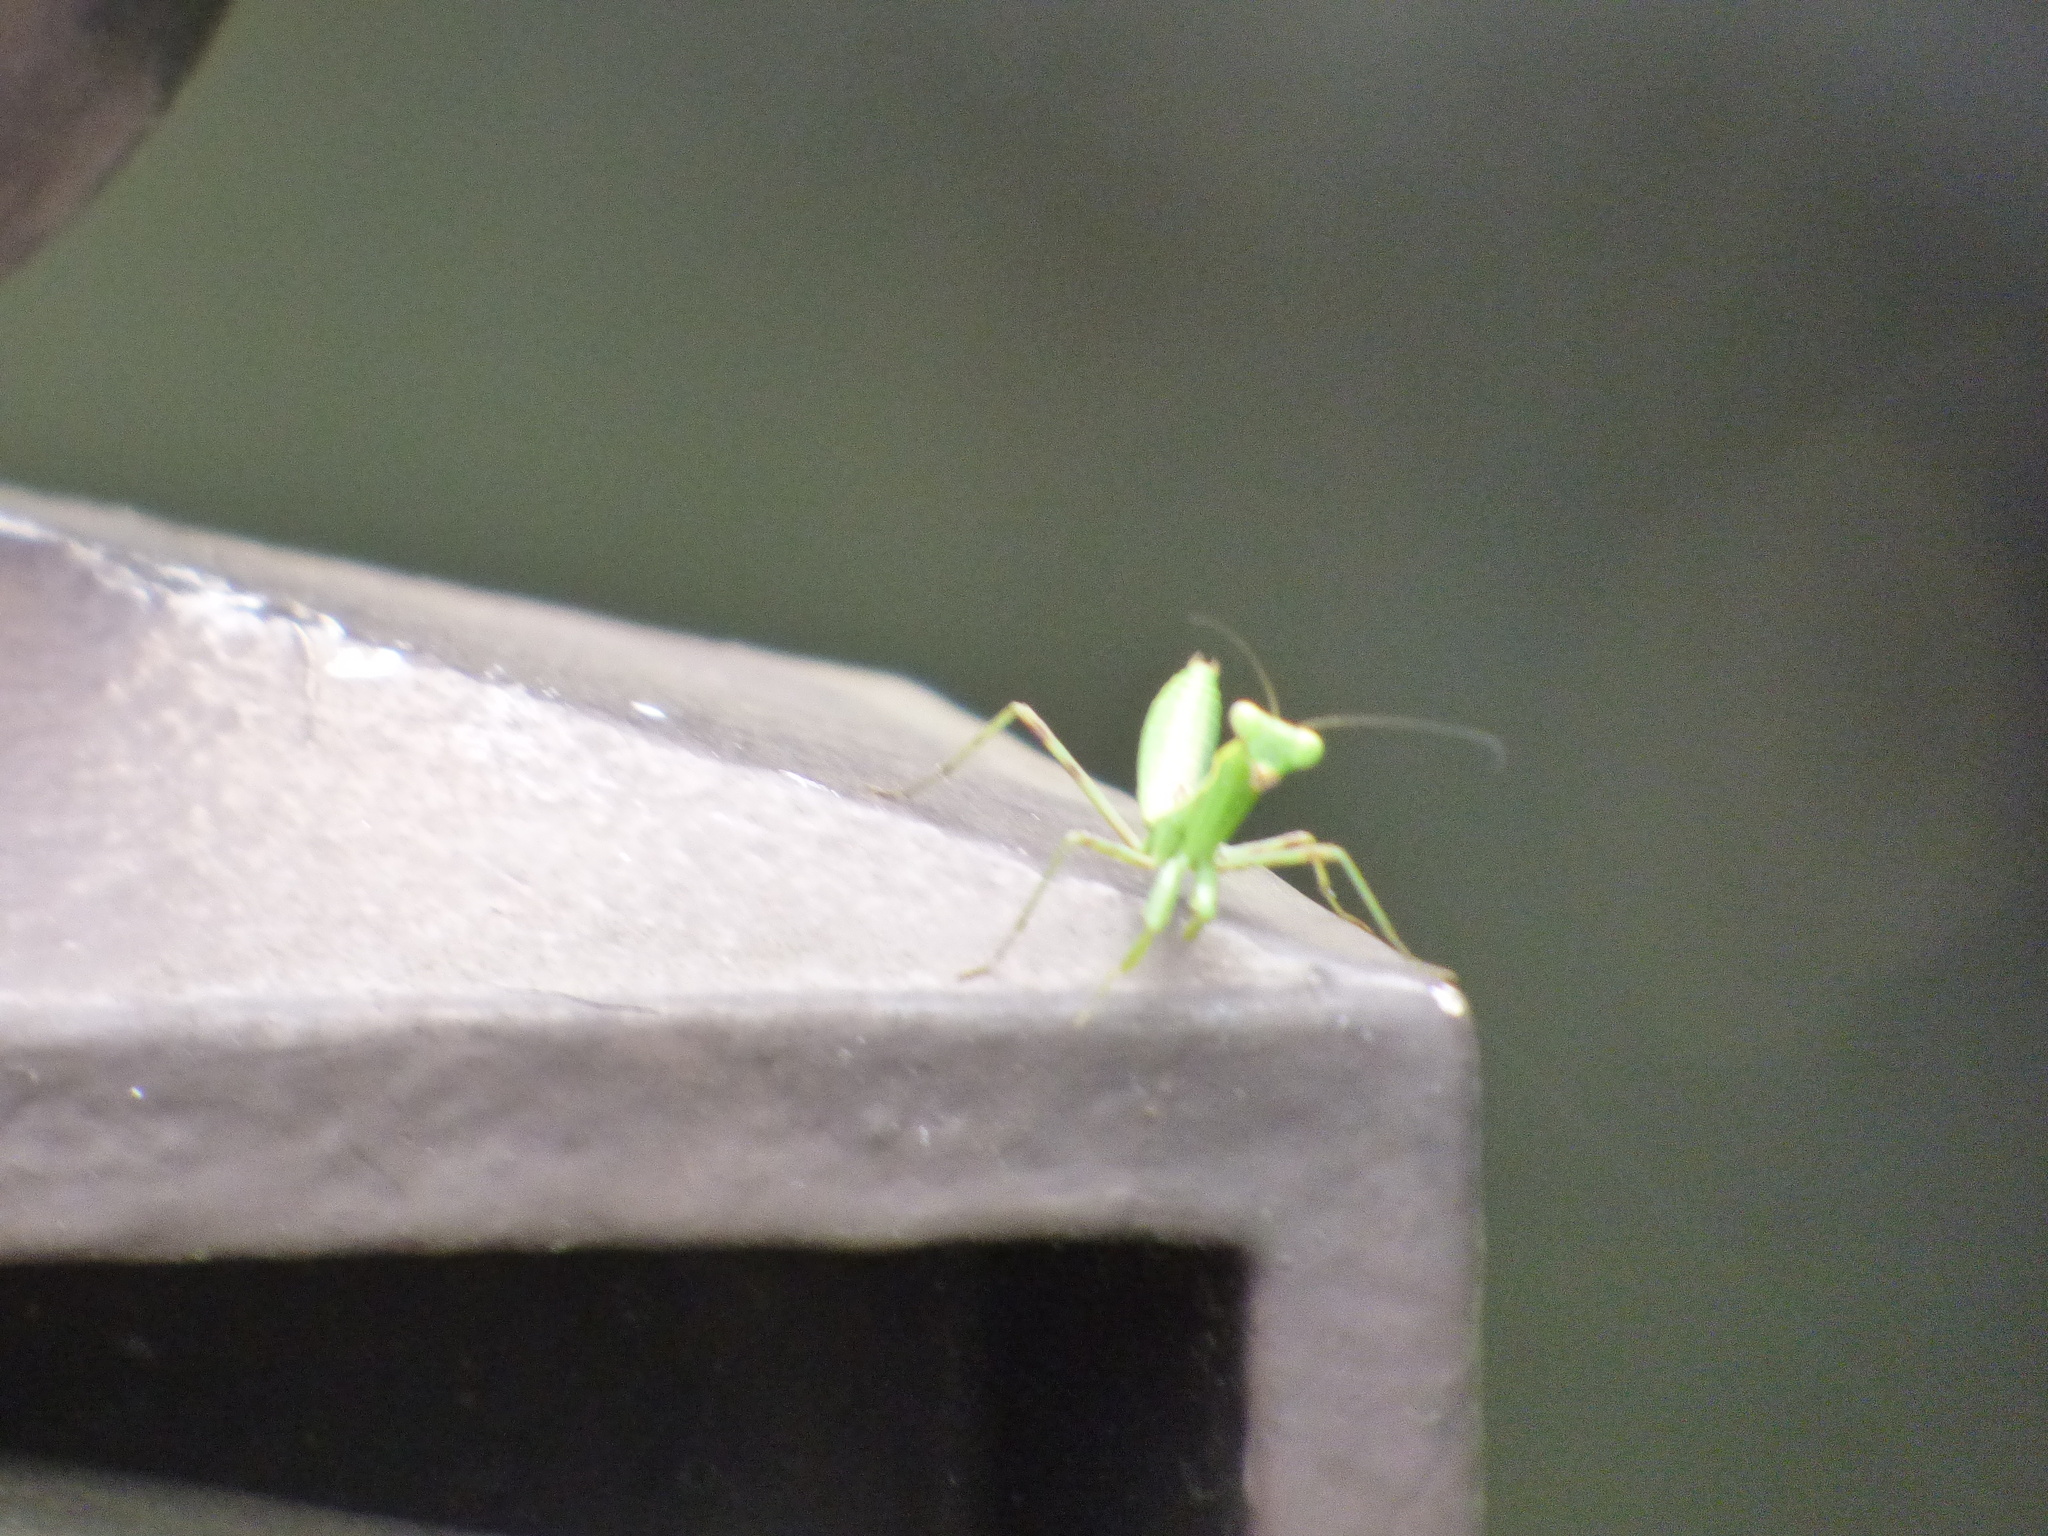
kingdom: Animalia
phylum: Arthropoda
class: Insecta
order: Mantodea
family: Mantidae
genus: Hierodula
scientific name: Hierodula patellifera
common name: Asian mantis
